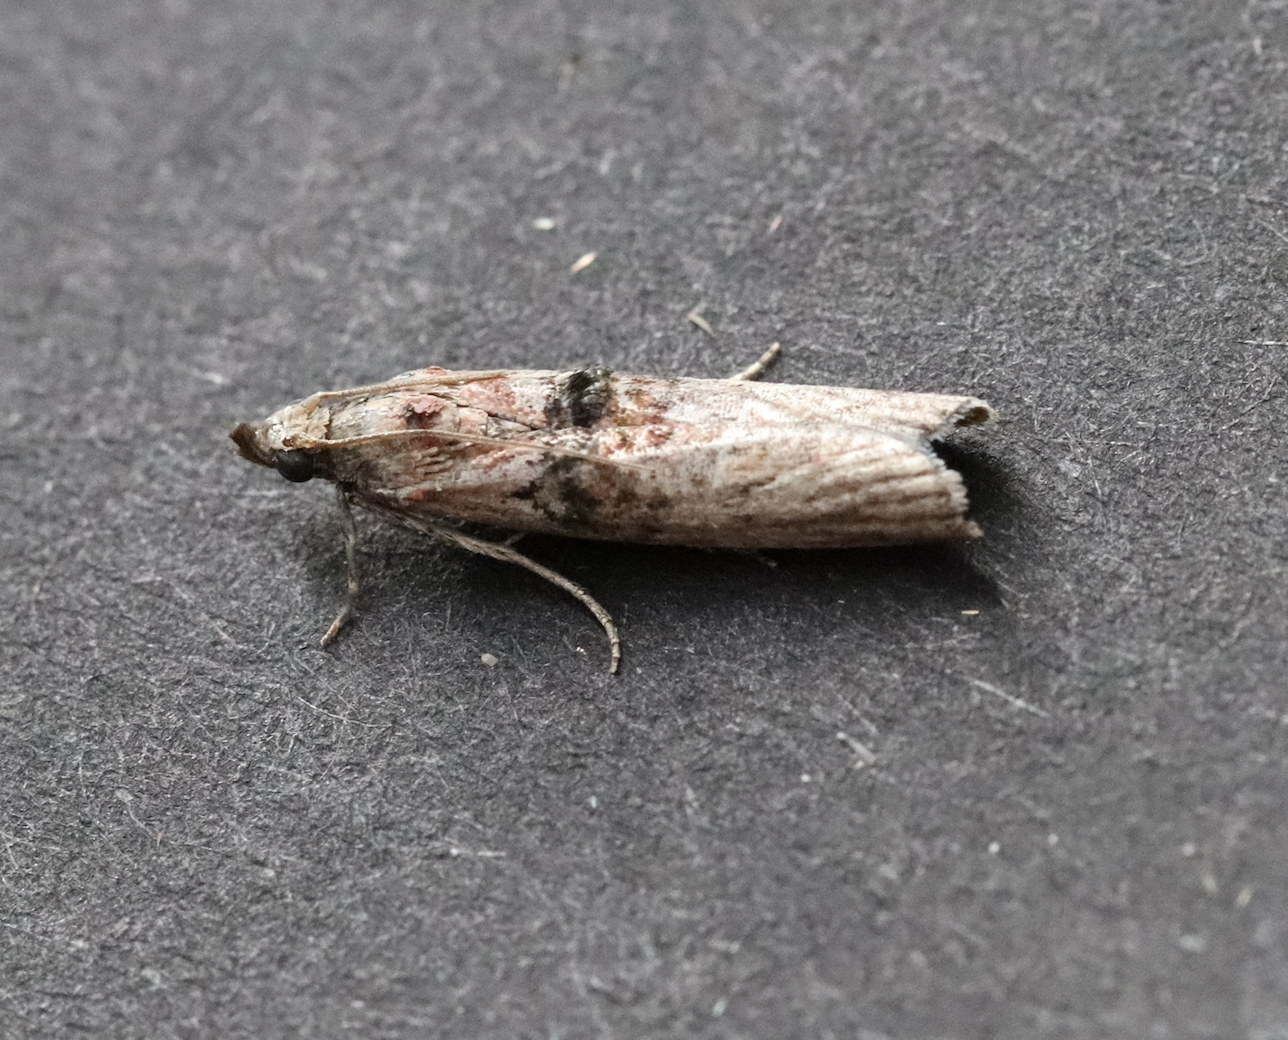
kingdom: Animalia
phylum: Arthropoda
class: Insecta
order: Lepidoptera
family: Pyralidae
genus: Nephopterix
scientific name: Nephopterix angustella
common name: Spindle knot-horn
